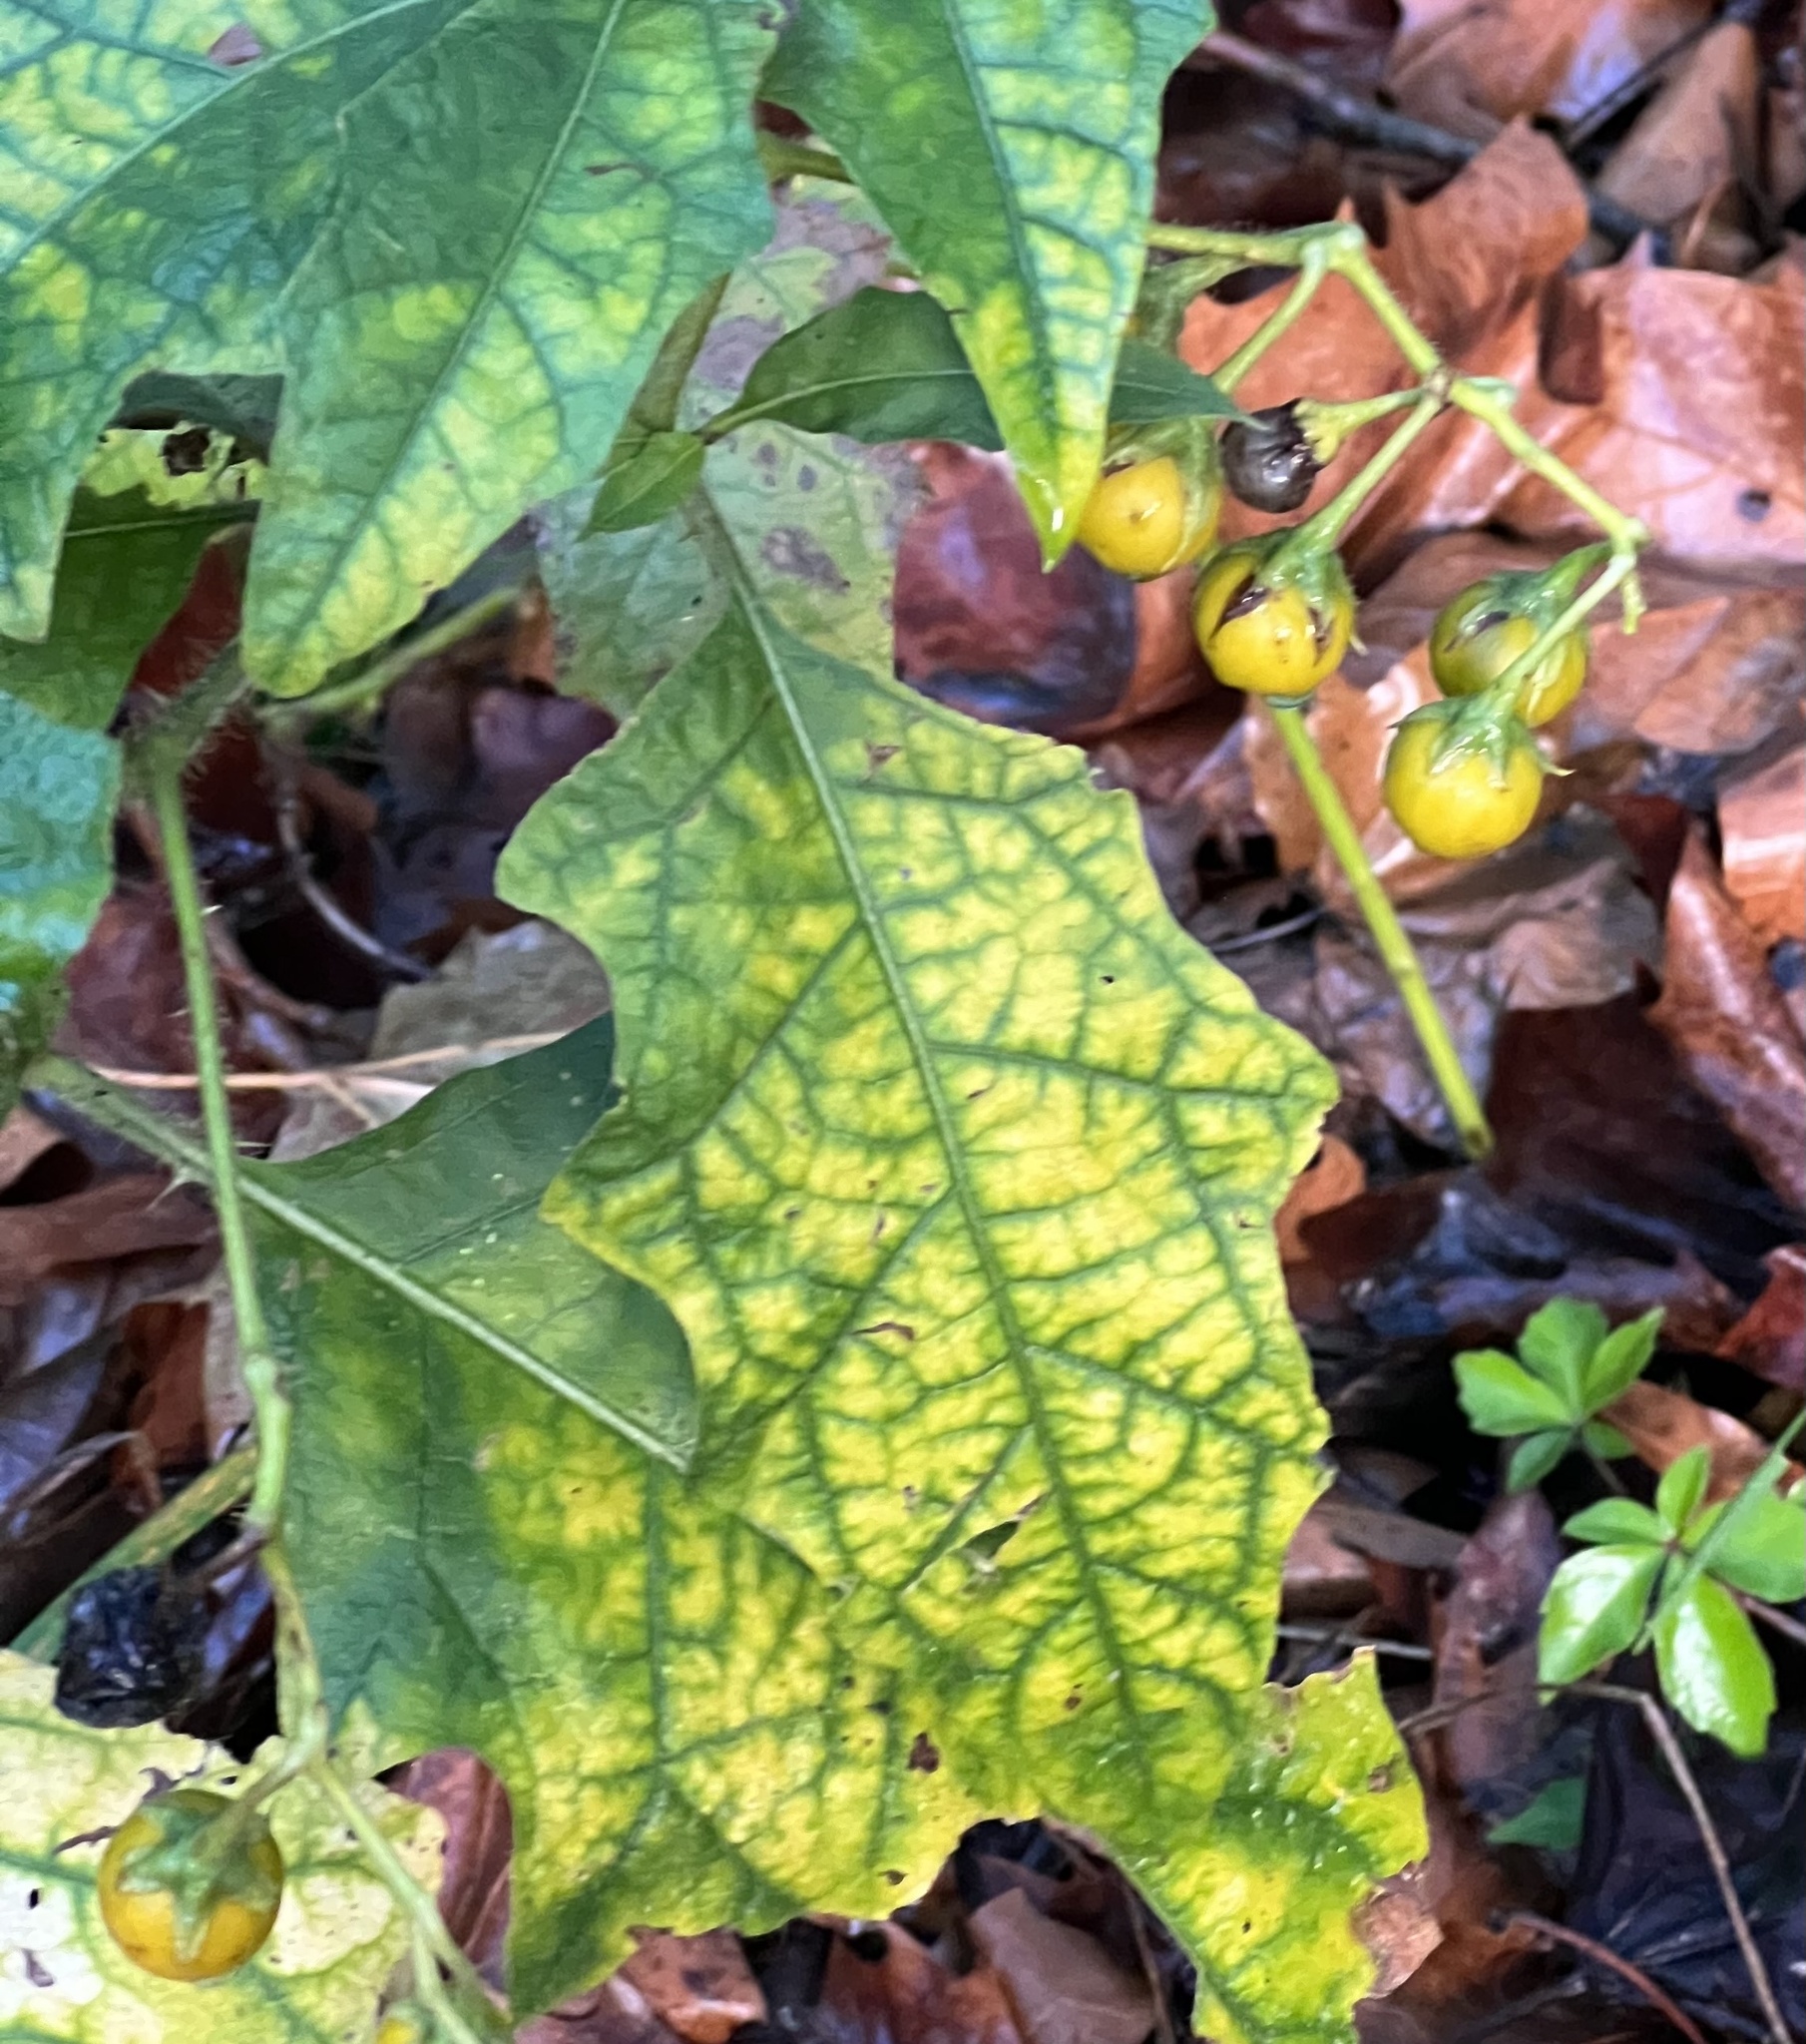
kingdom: Plantae
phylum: Tracheophyta
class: Magnoliopsida
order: Solanales
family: Solanaceae
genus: Solanum
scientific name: Solanum carolinense
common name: Horse-nettle
